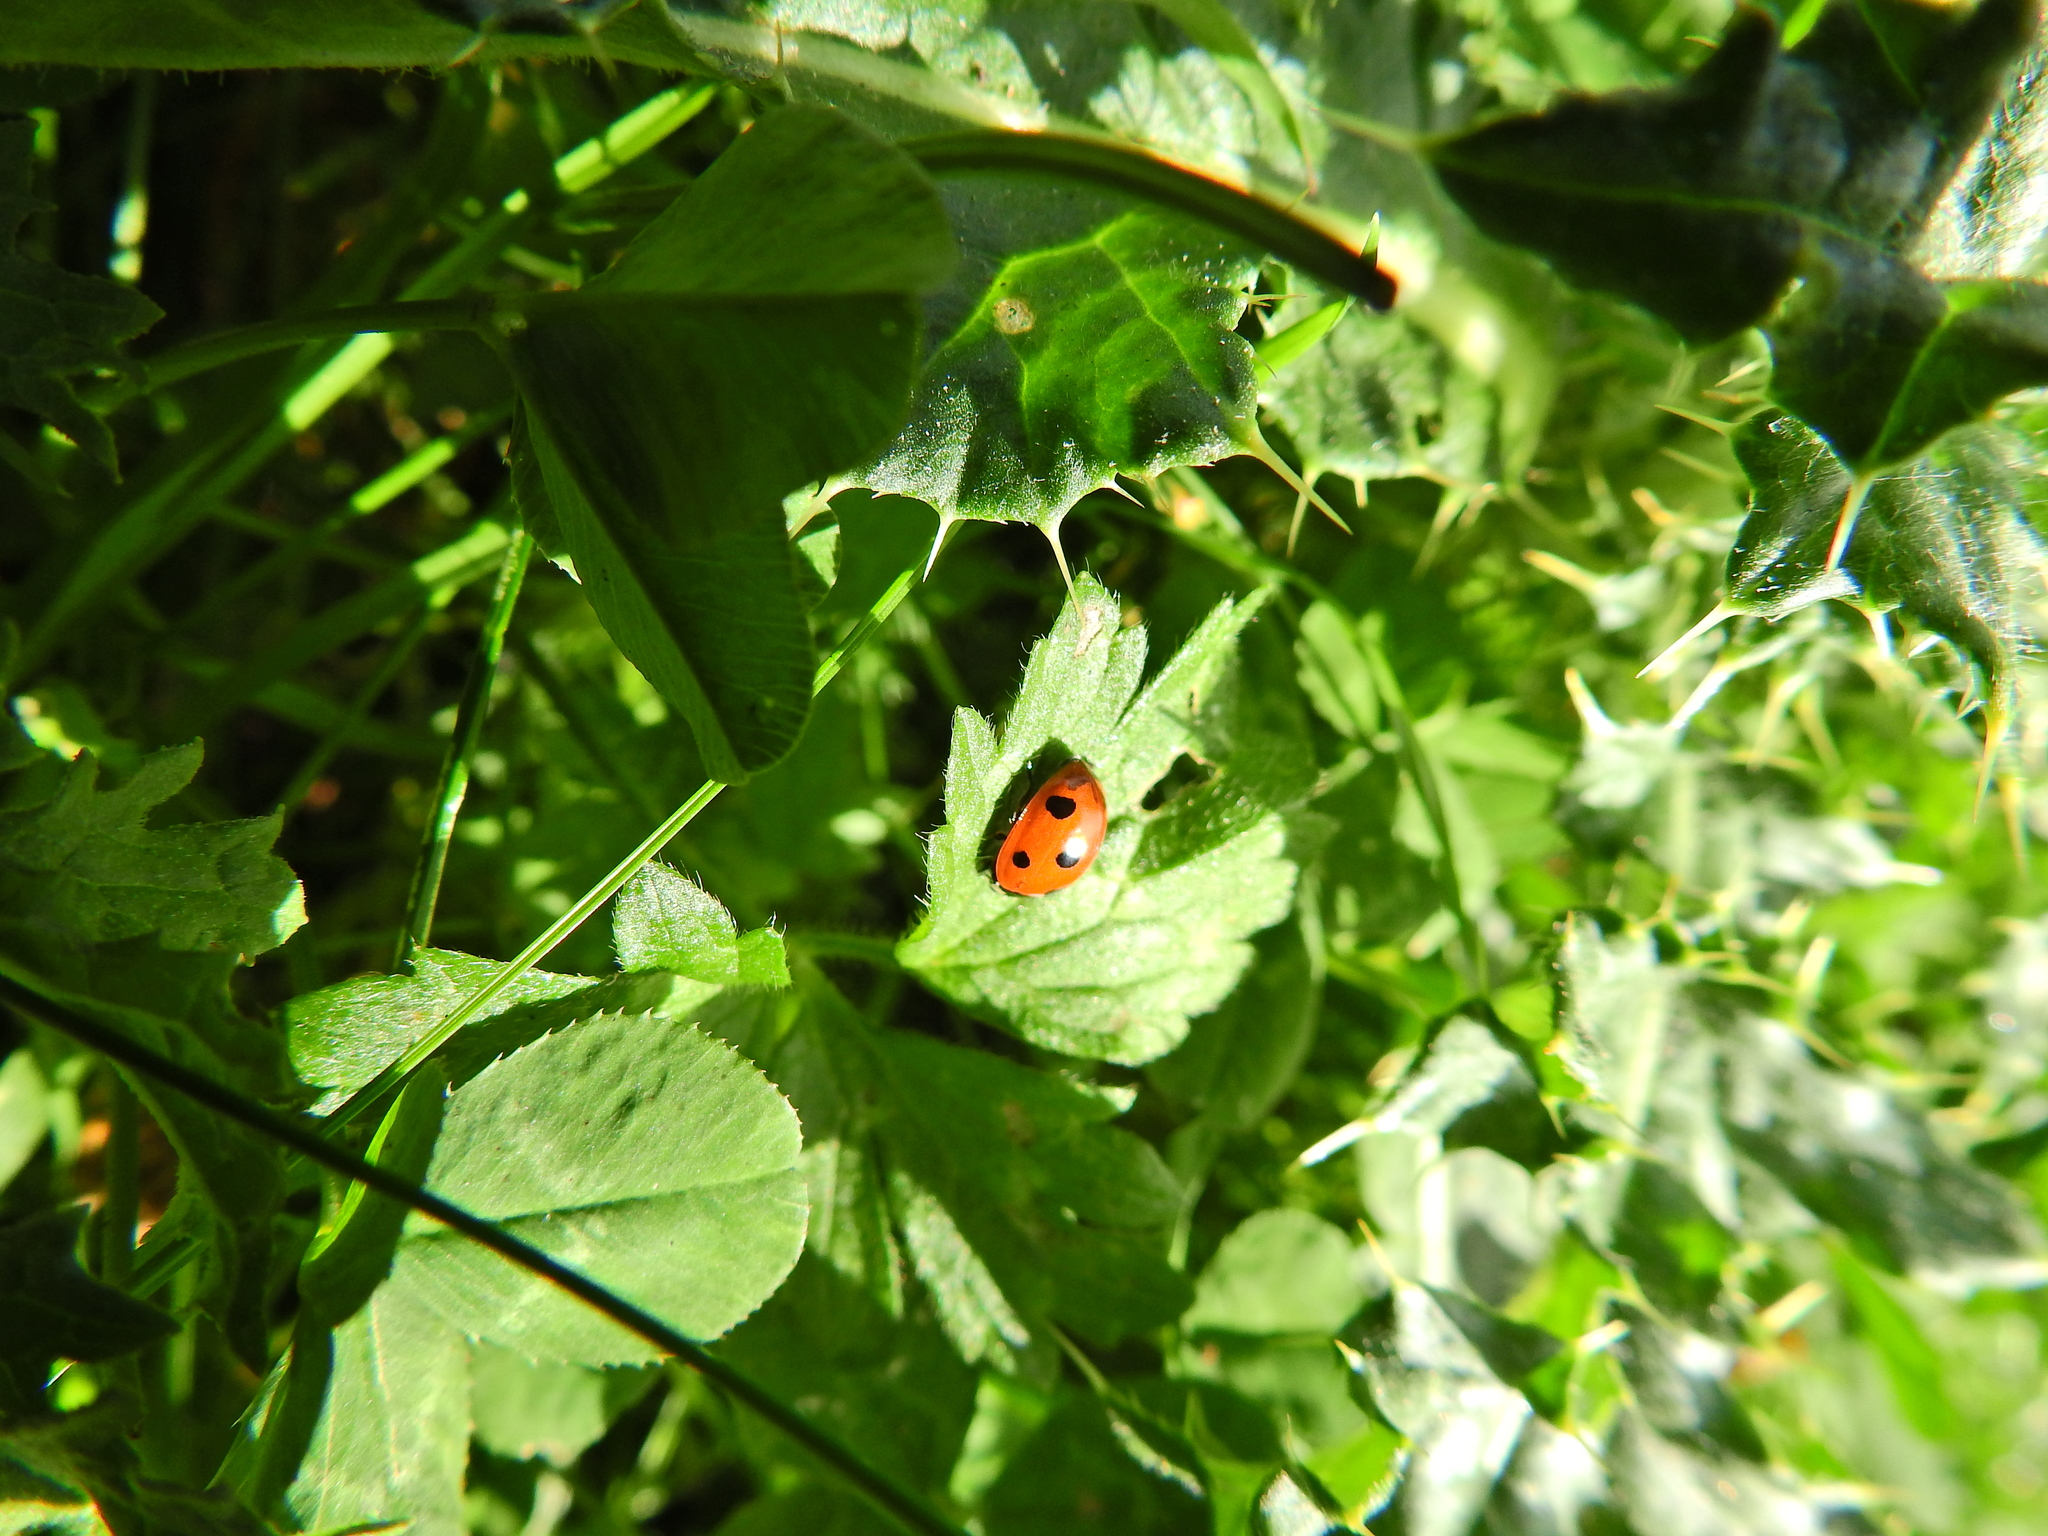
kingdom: Animalia
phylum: Arthropoda
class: Insecta
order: Coleoptera
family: Coccinellidae
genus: Coccinella
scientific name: Coccinella septempunctata
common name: Sevenspotted lady beetle
